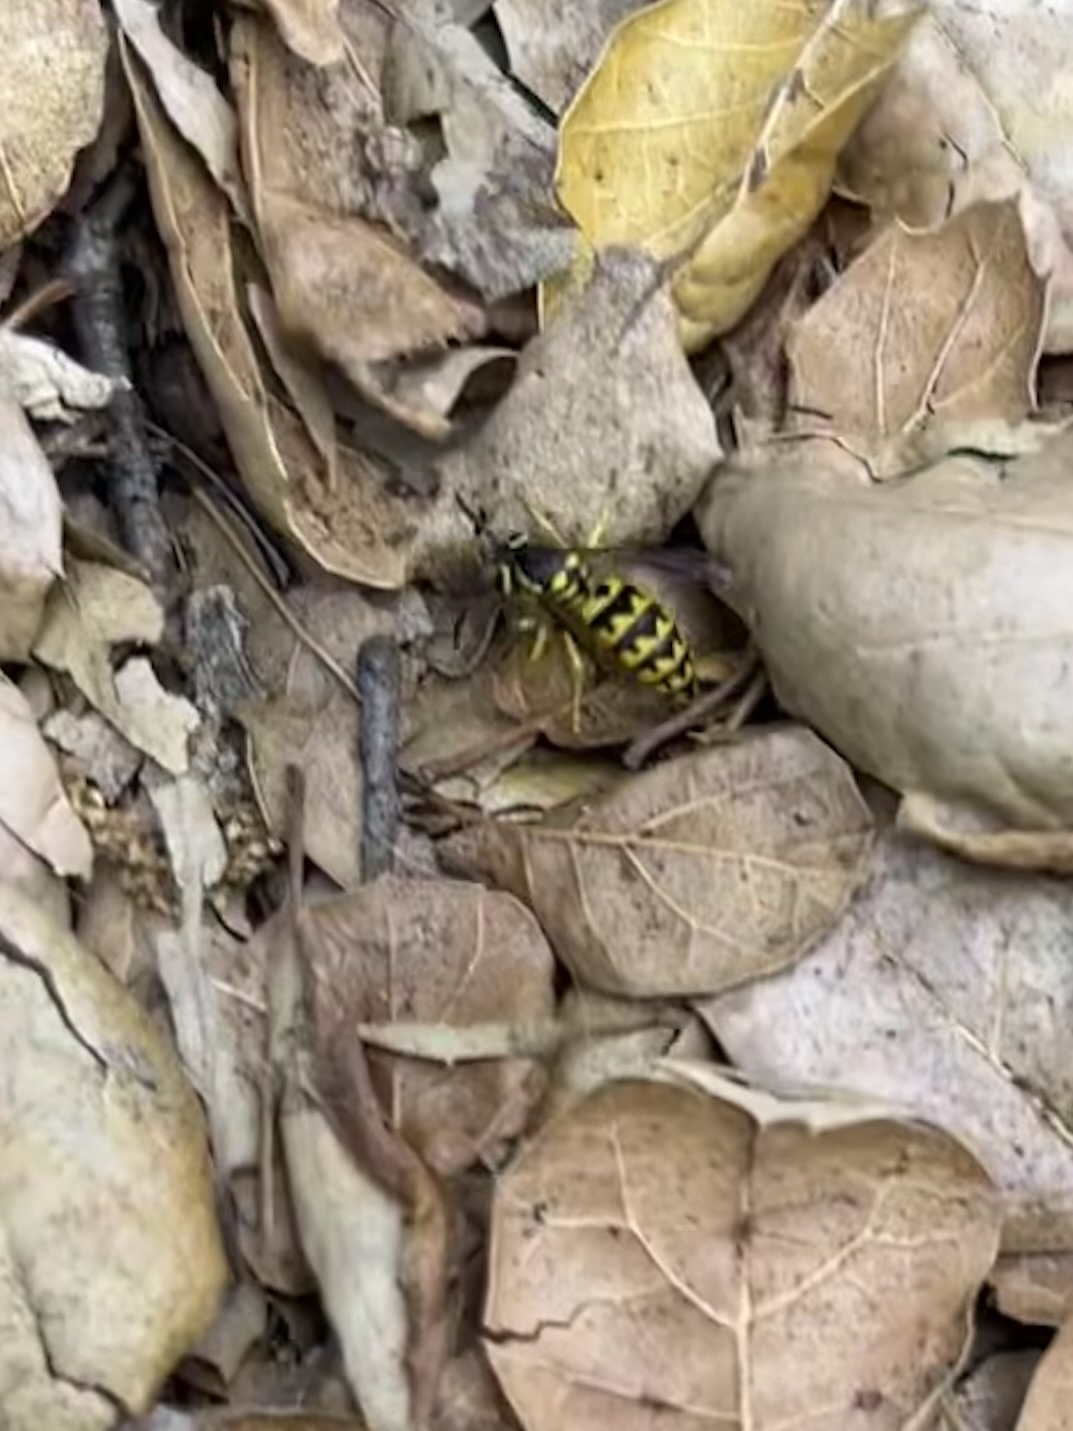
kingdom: Animalia
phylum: Arthropoda
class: Insecta
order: Hymenoptera
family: Vespidae
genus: Vespula
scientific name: Vespula pensylvanica
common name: Western yellowjacket
